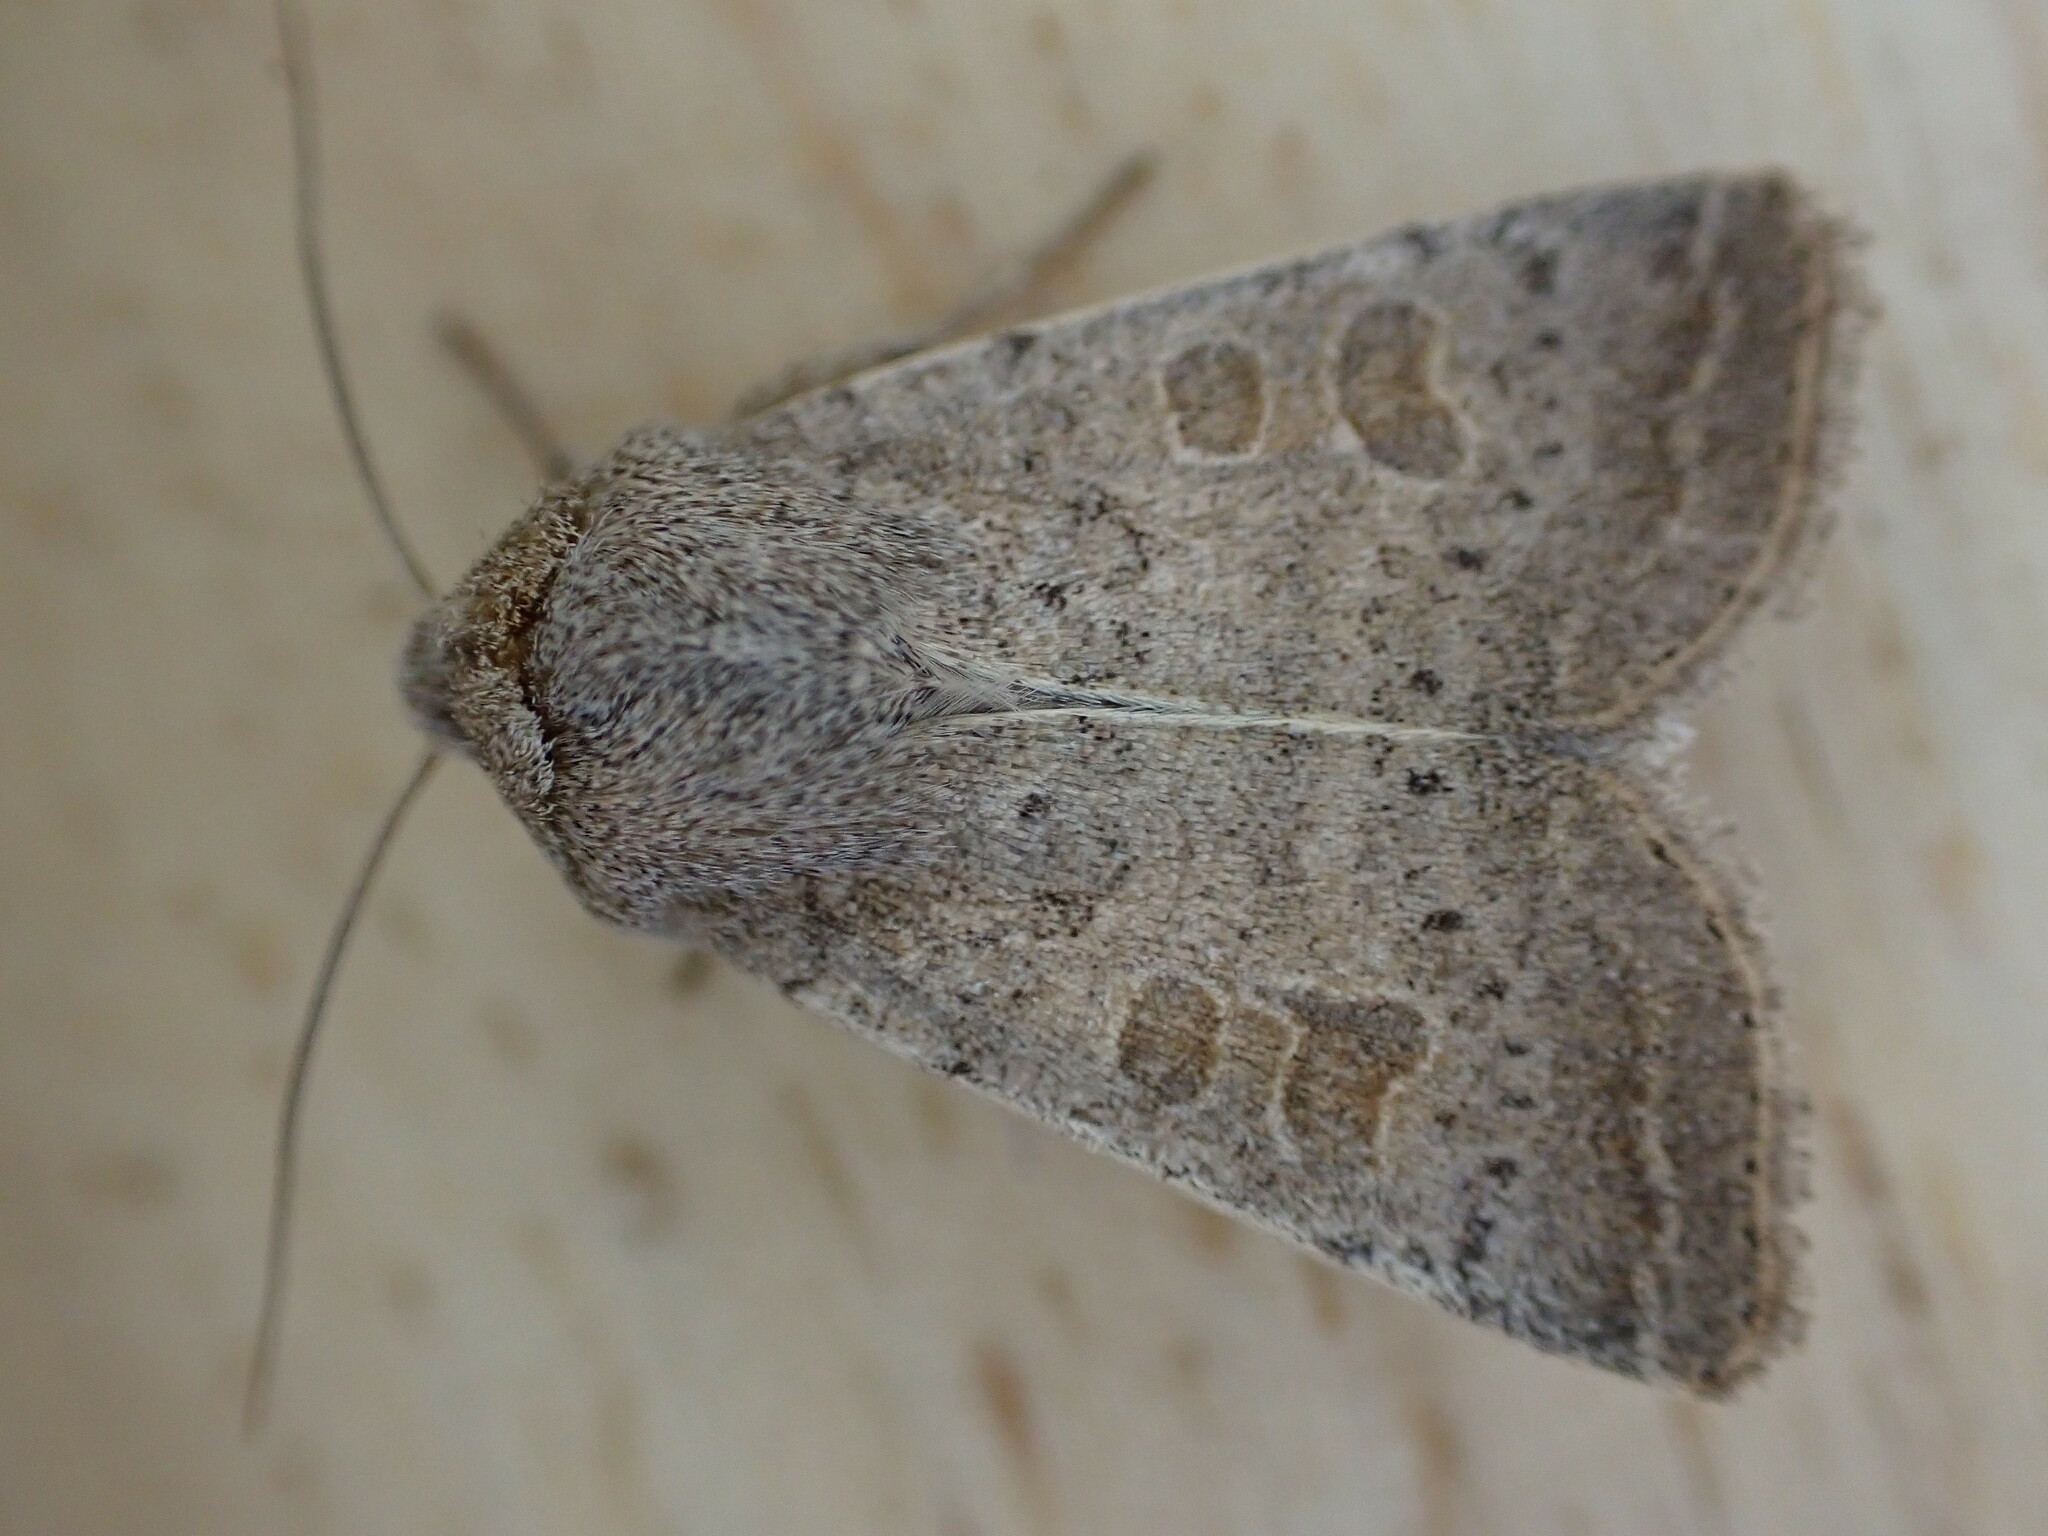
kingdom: Animalia
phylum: Arthropoda
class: Insecta
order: Lepidoptera
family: Noctuidae
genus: Hoplodrina
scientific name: Hoplodrina ambigua
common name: Vine's rustic
